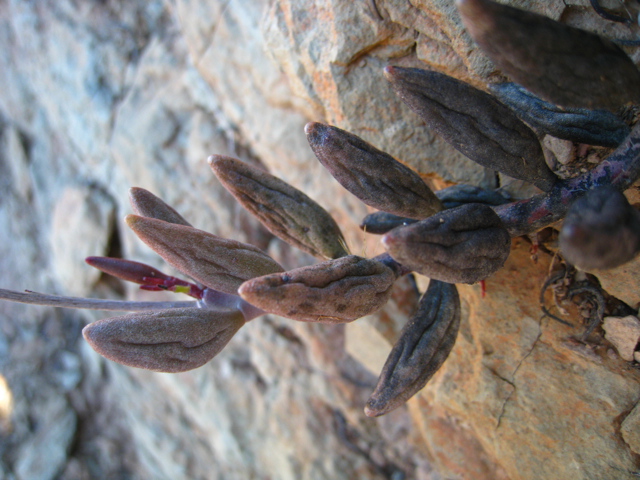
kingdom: Plantae
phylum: Tracheophyta
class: Magnoliopsida
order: Saxifragales
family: Crassulaceae
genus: Adromischus
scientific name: Adromischus filicaulis
